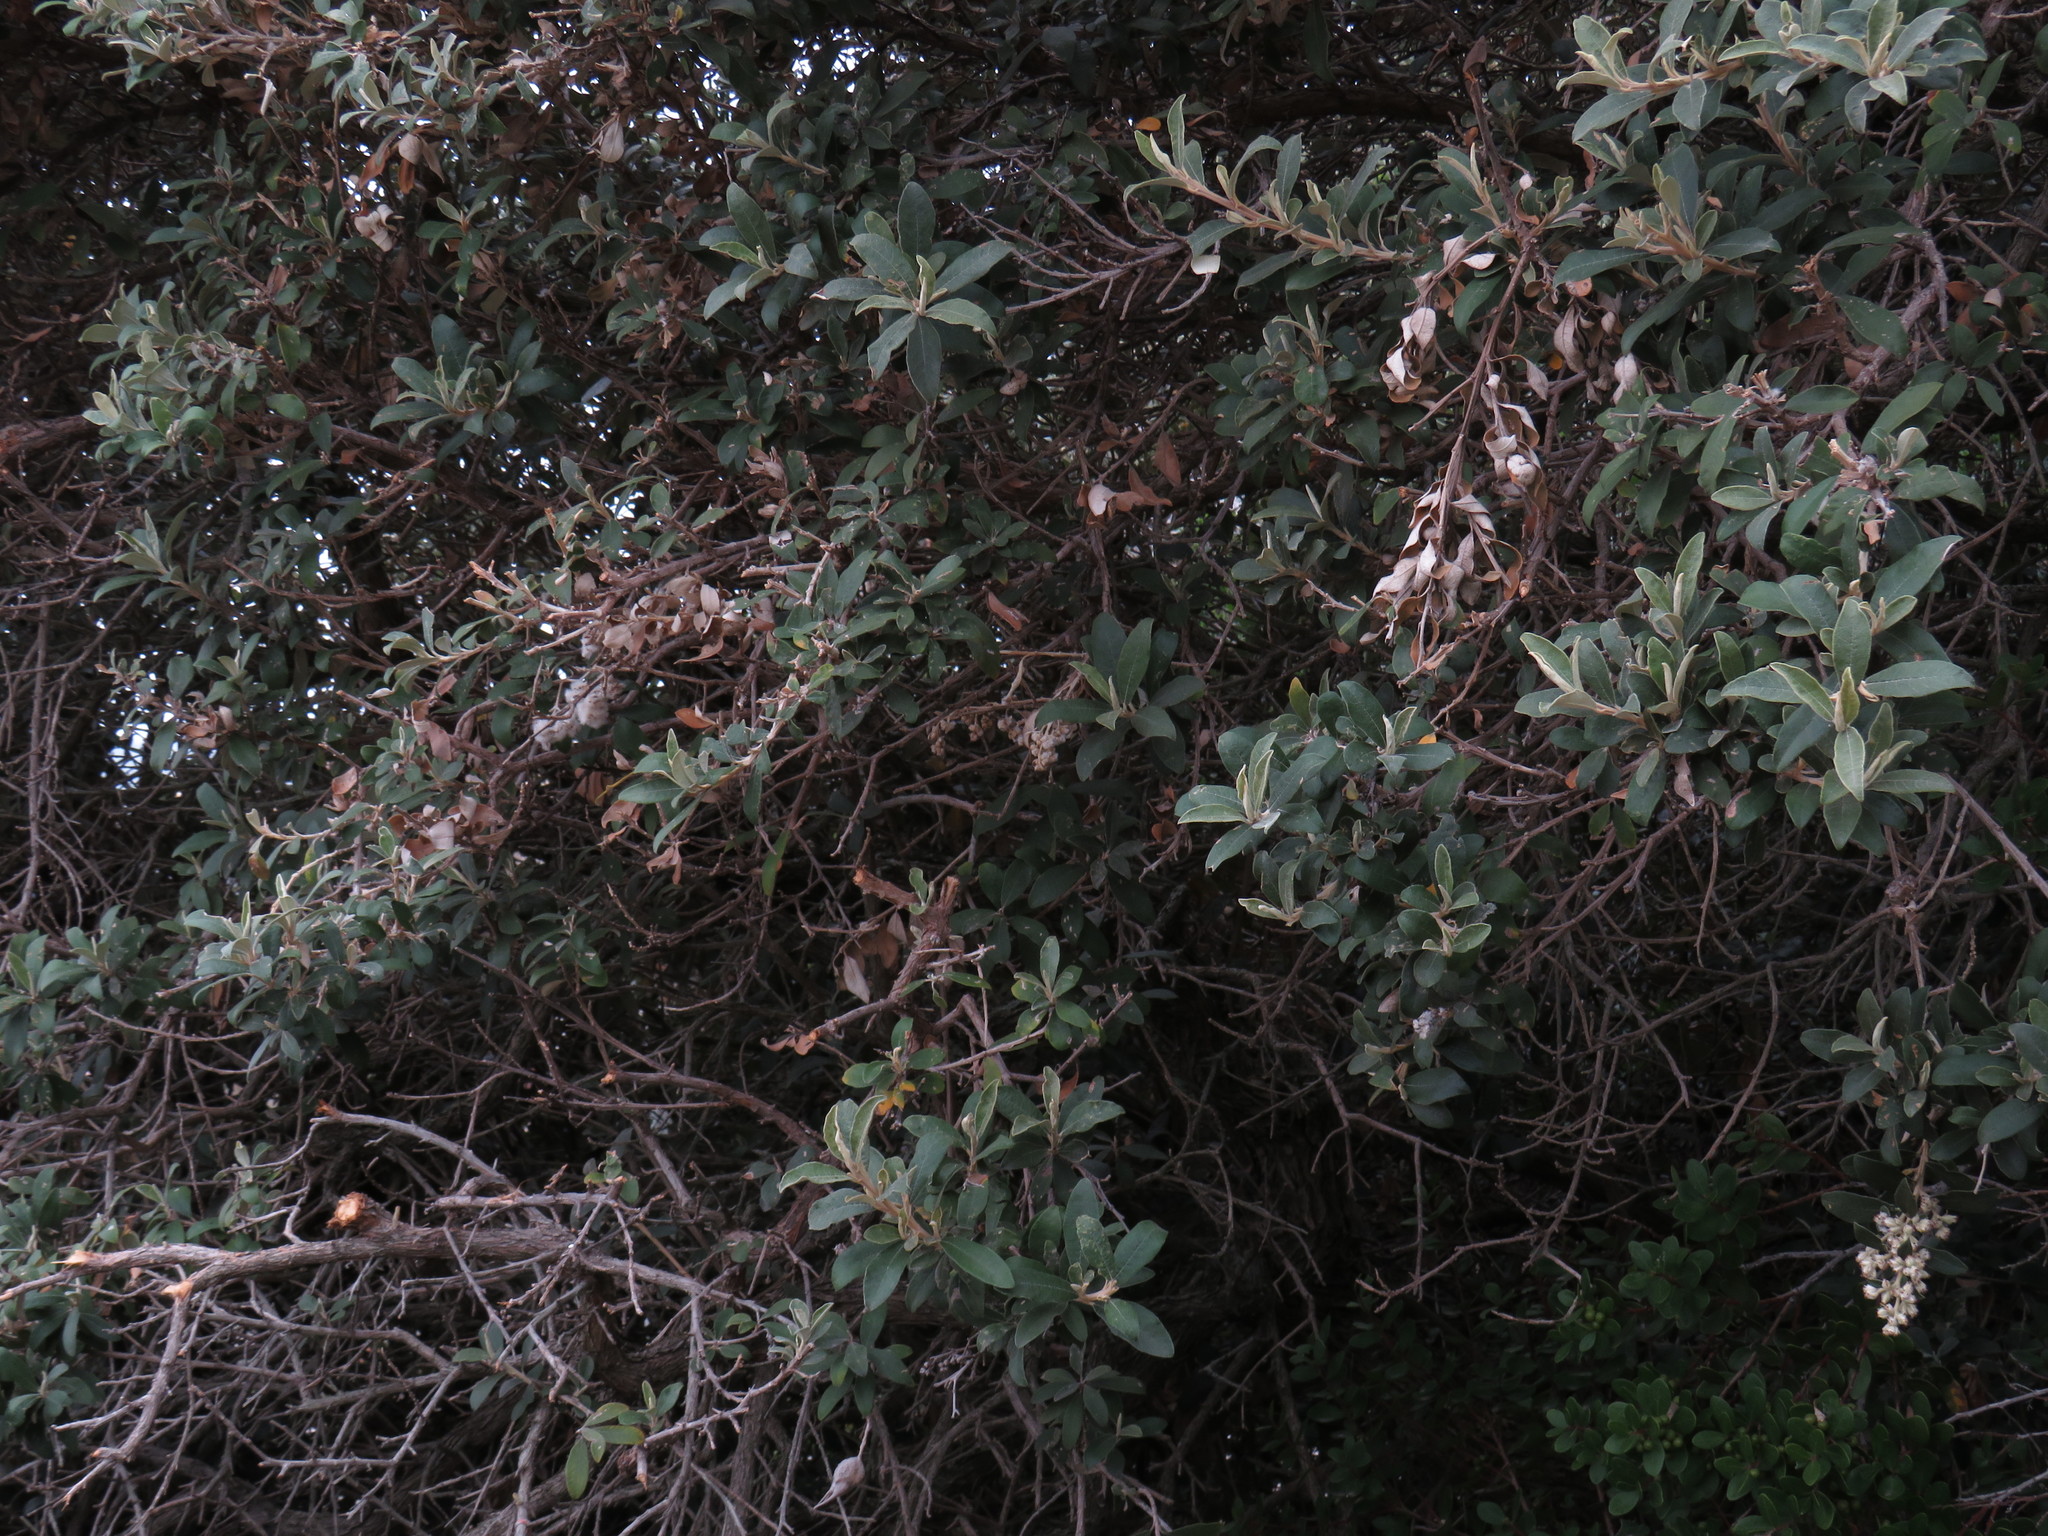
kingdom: Plantae
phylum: Tracheophyta
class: Magnoliopsida
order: Asterales
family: Asteraceae
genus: Tarchonanthus
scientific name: Tarchonanthus littoralis
